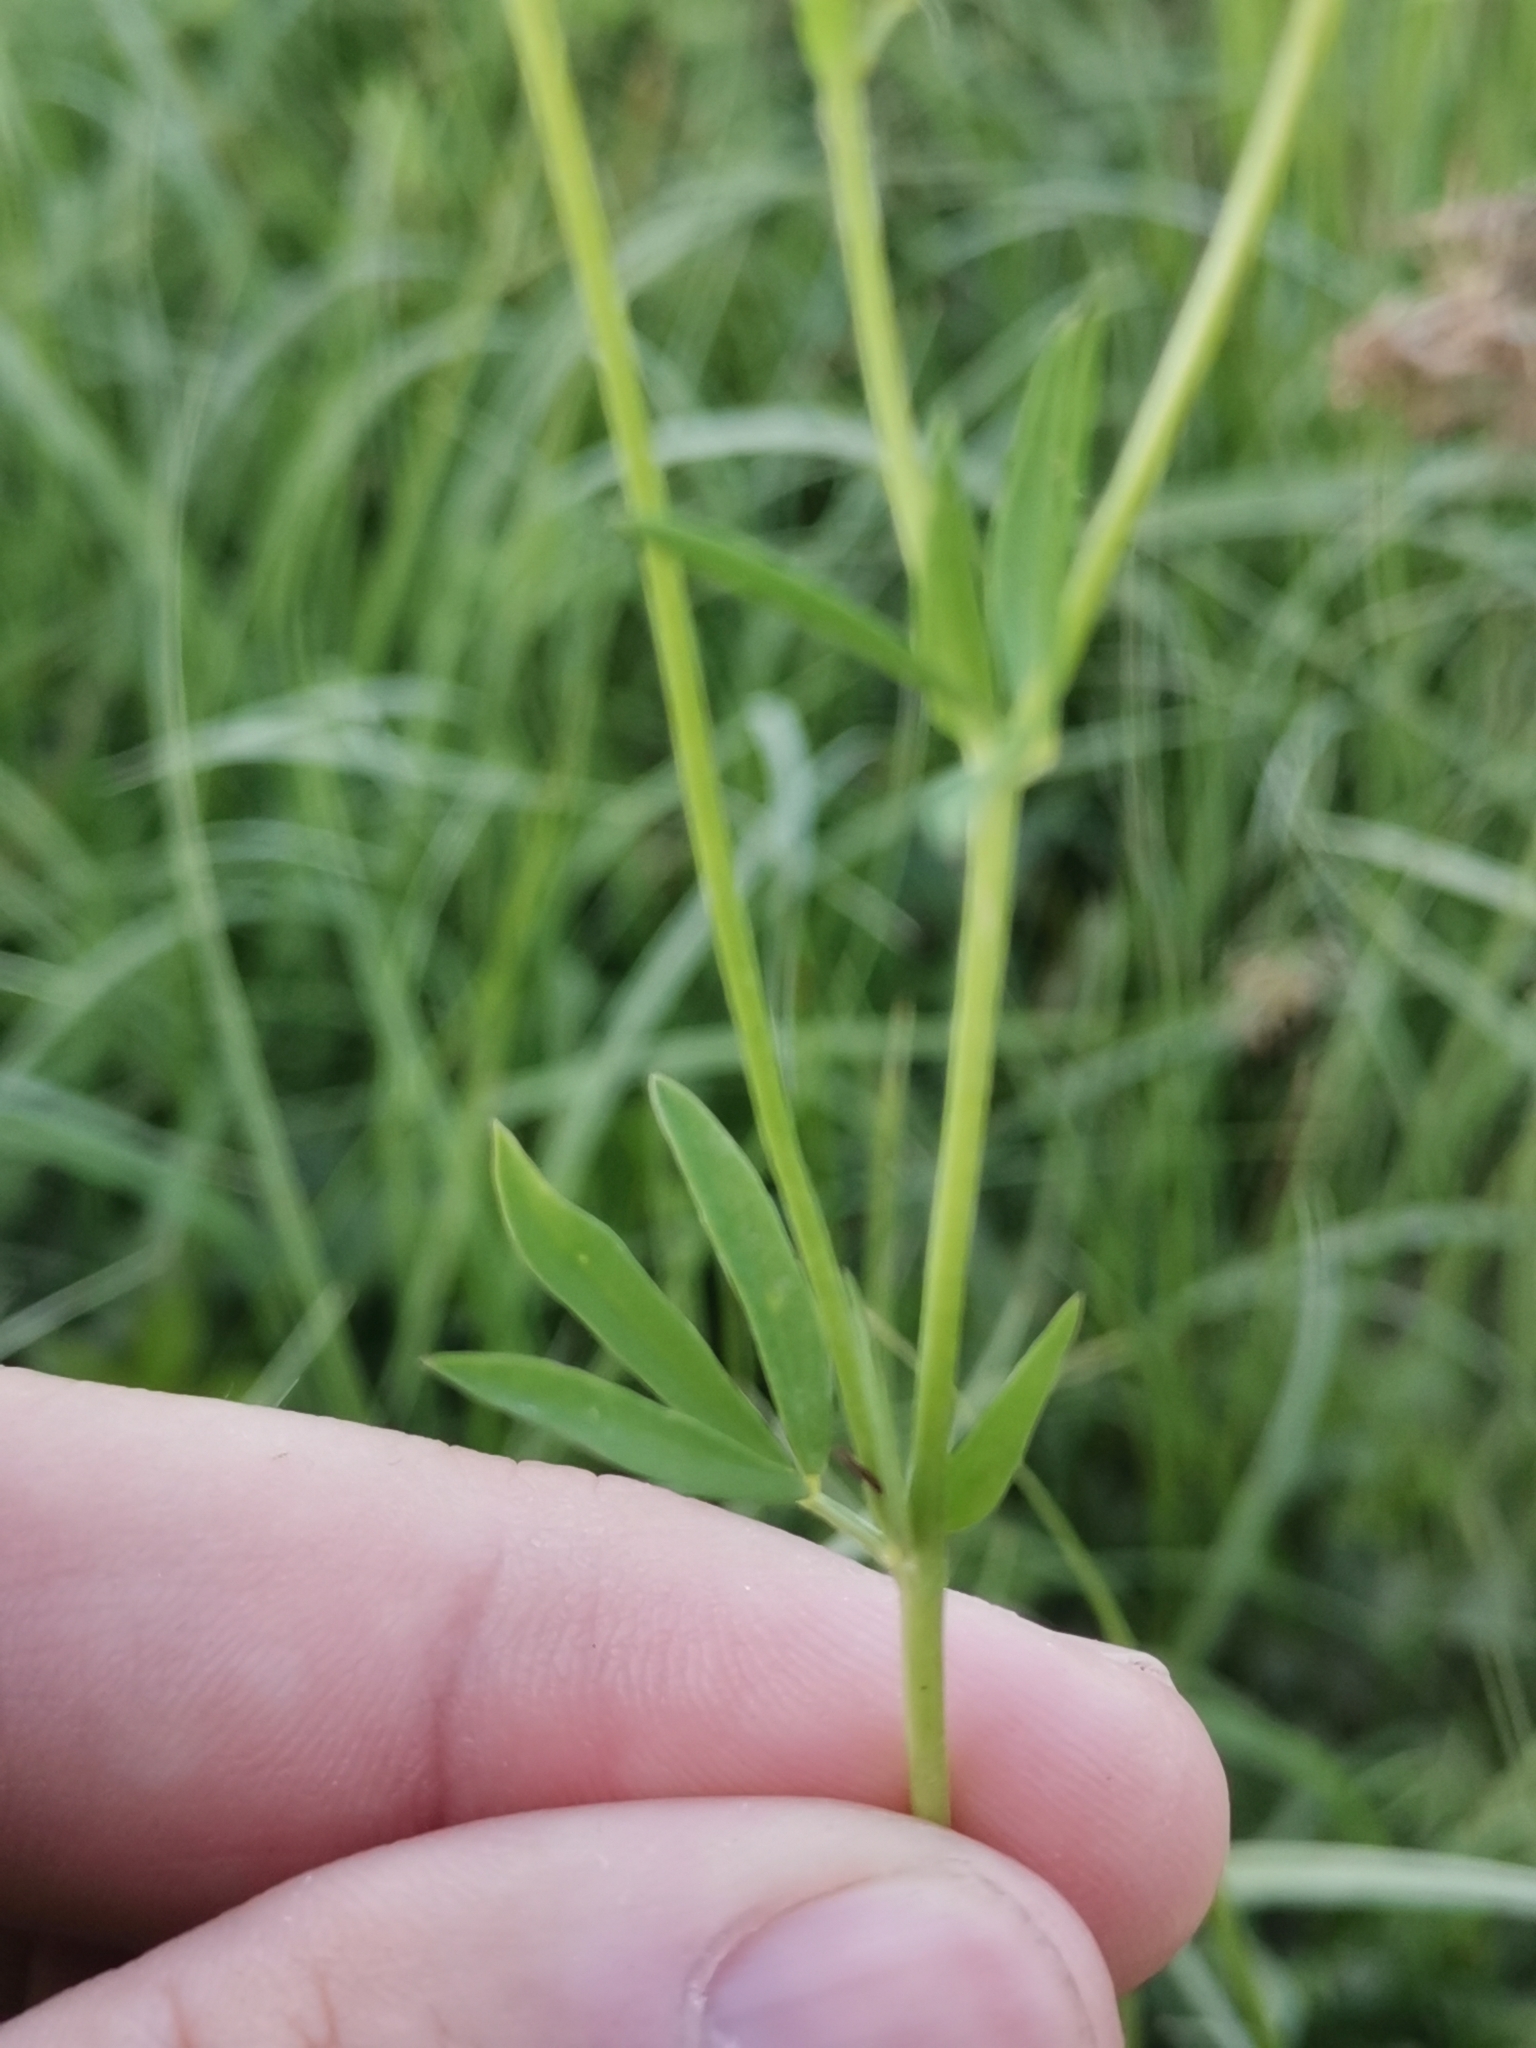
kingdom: Plantae
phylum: Tracheophyta
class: Magnoliopsida
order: Fabales
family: Fabaceae
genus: Lotus
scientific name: Lotus tenuis
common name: Narrow-leaved bird's-foot-trefoil
